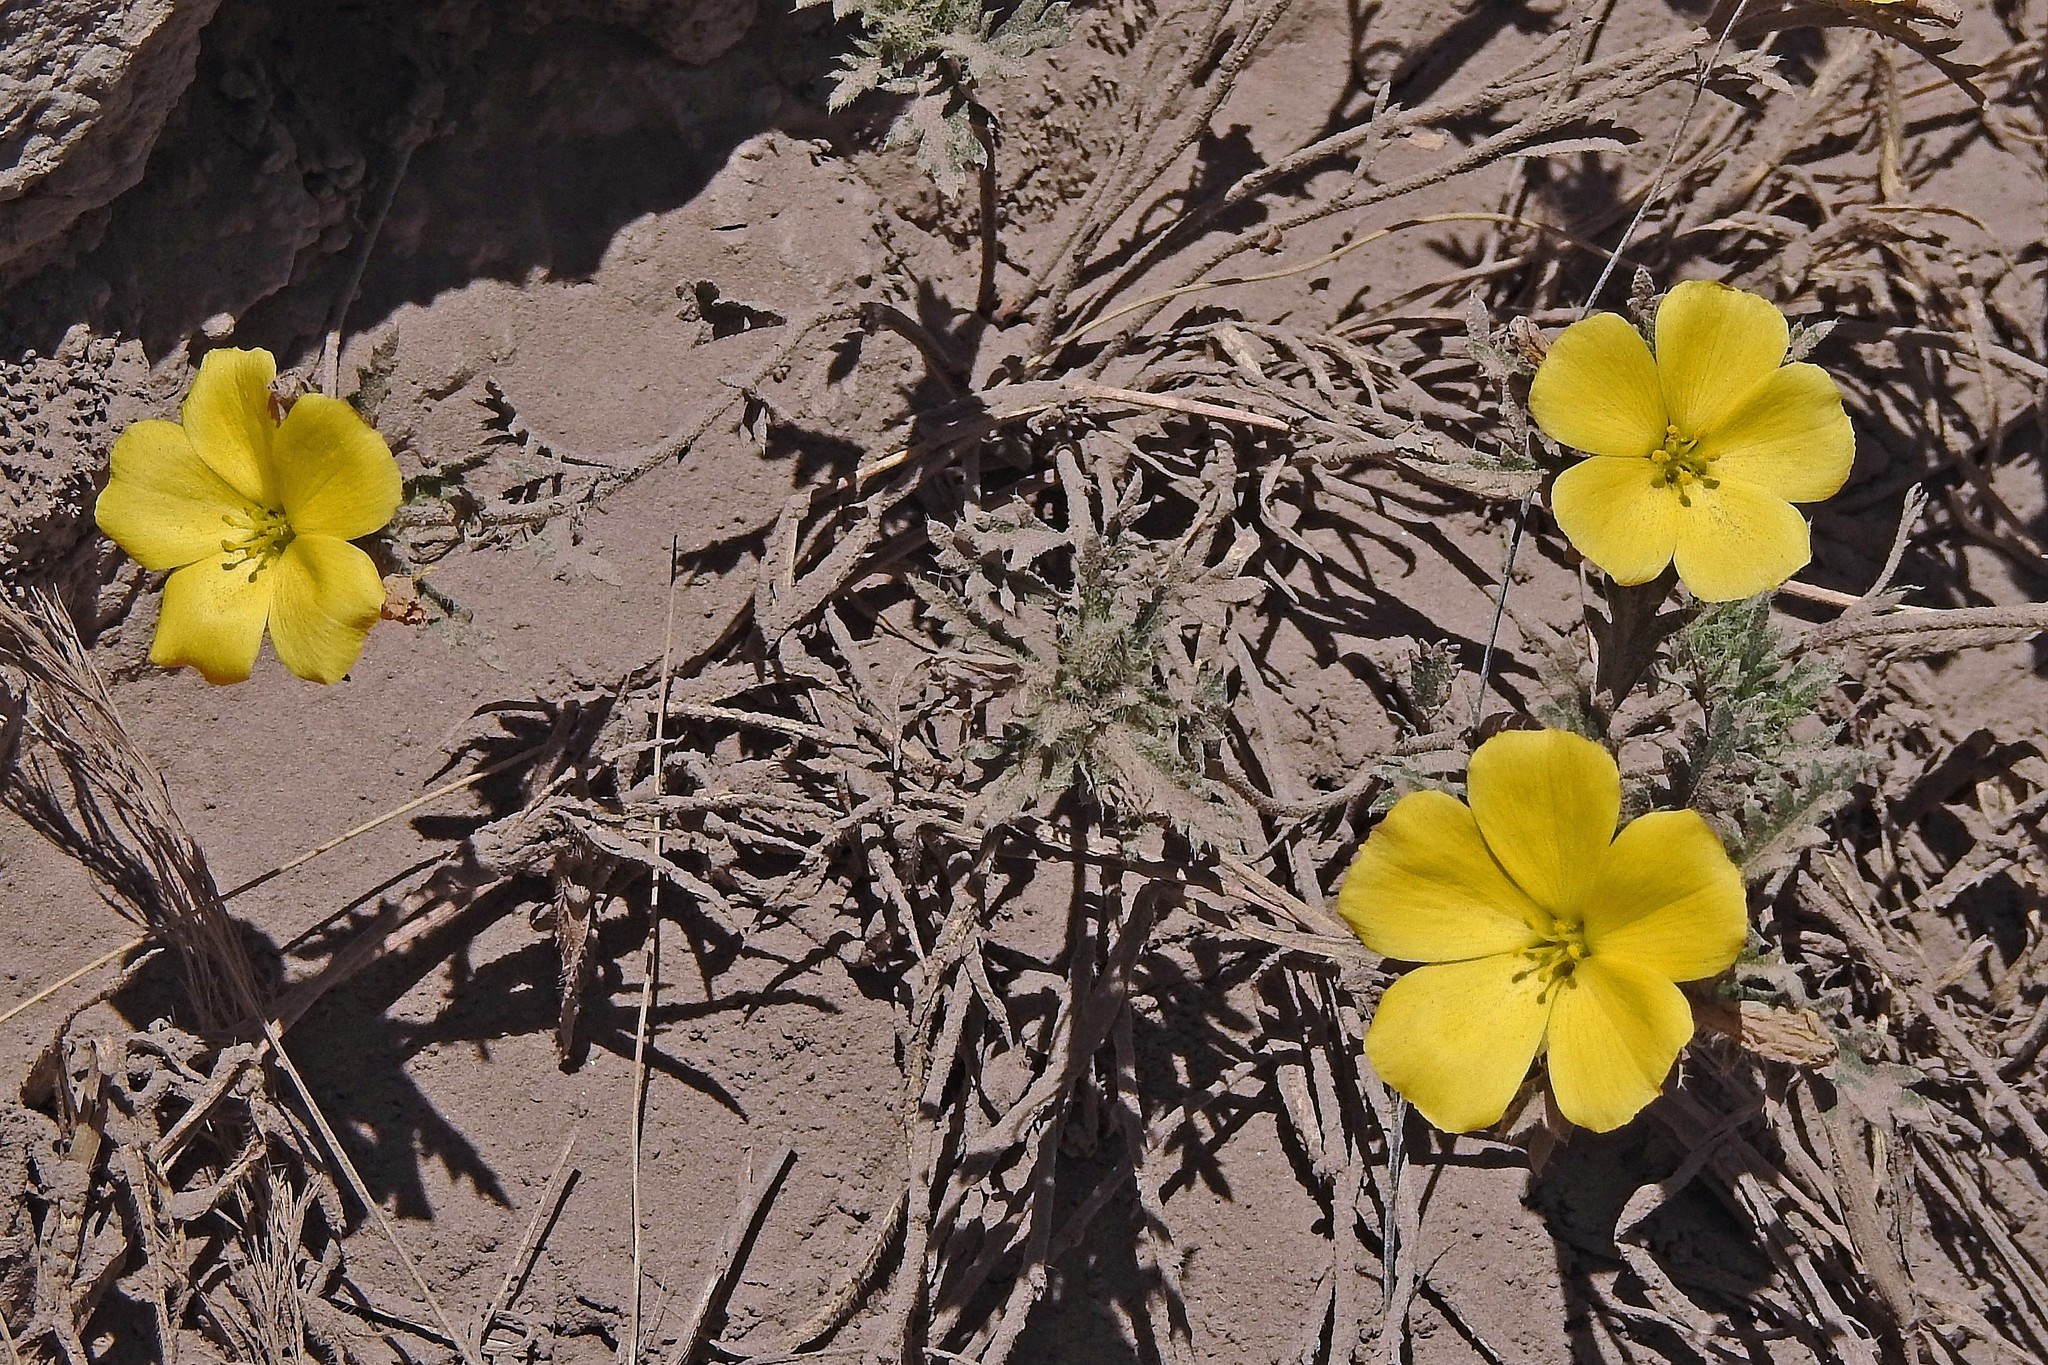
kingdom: Plantae
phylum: Tracheophyta
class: Magnoliopsida
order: Malpighiales
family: Turneraceae
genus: Turnera
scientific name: Turnera sidoides
